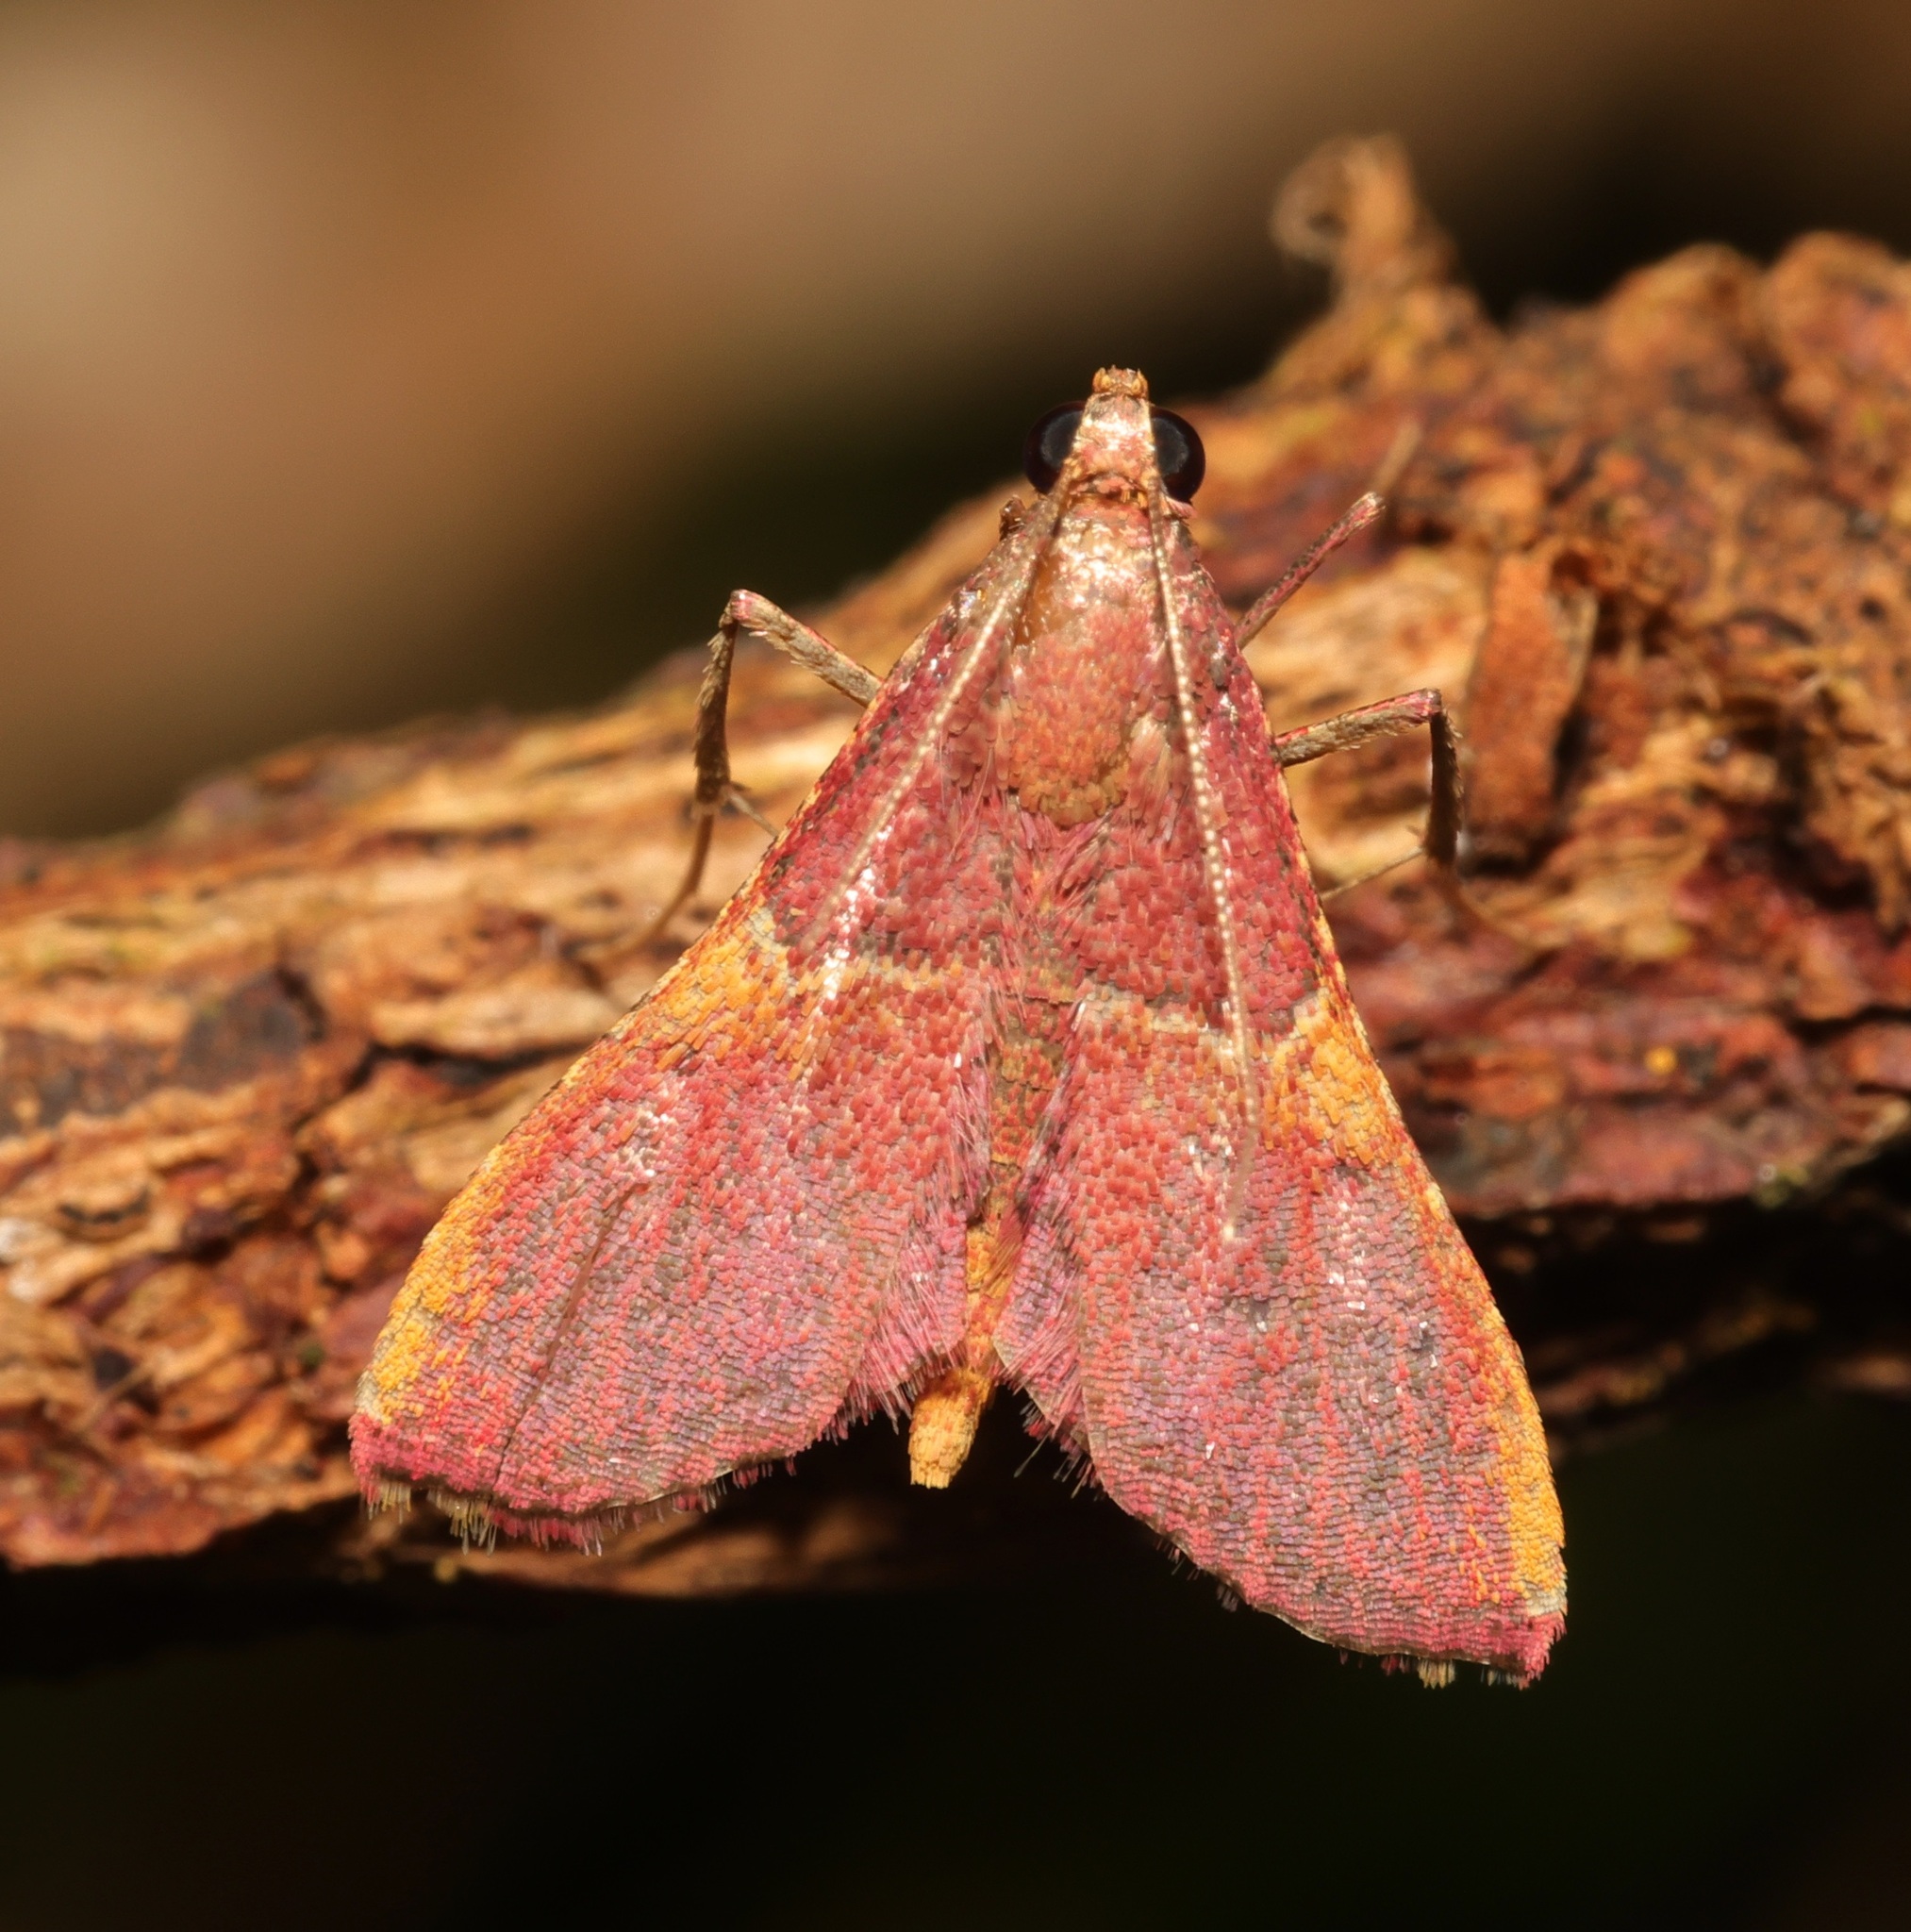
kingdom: Animalia
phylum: Arthropoda
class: Insecta
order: Lepidoptera
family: Pyralidae
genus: Endotricha
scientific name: Endotricha mesenterialis
